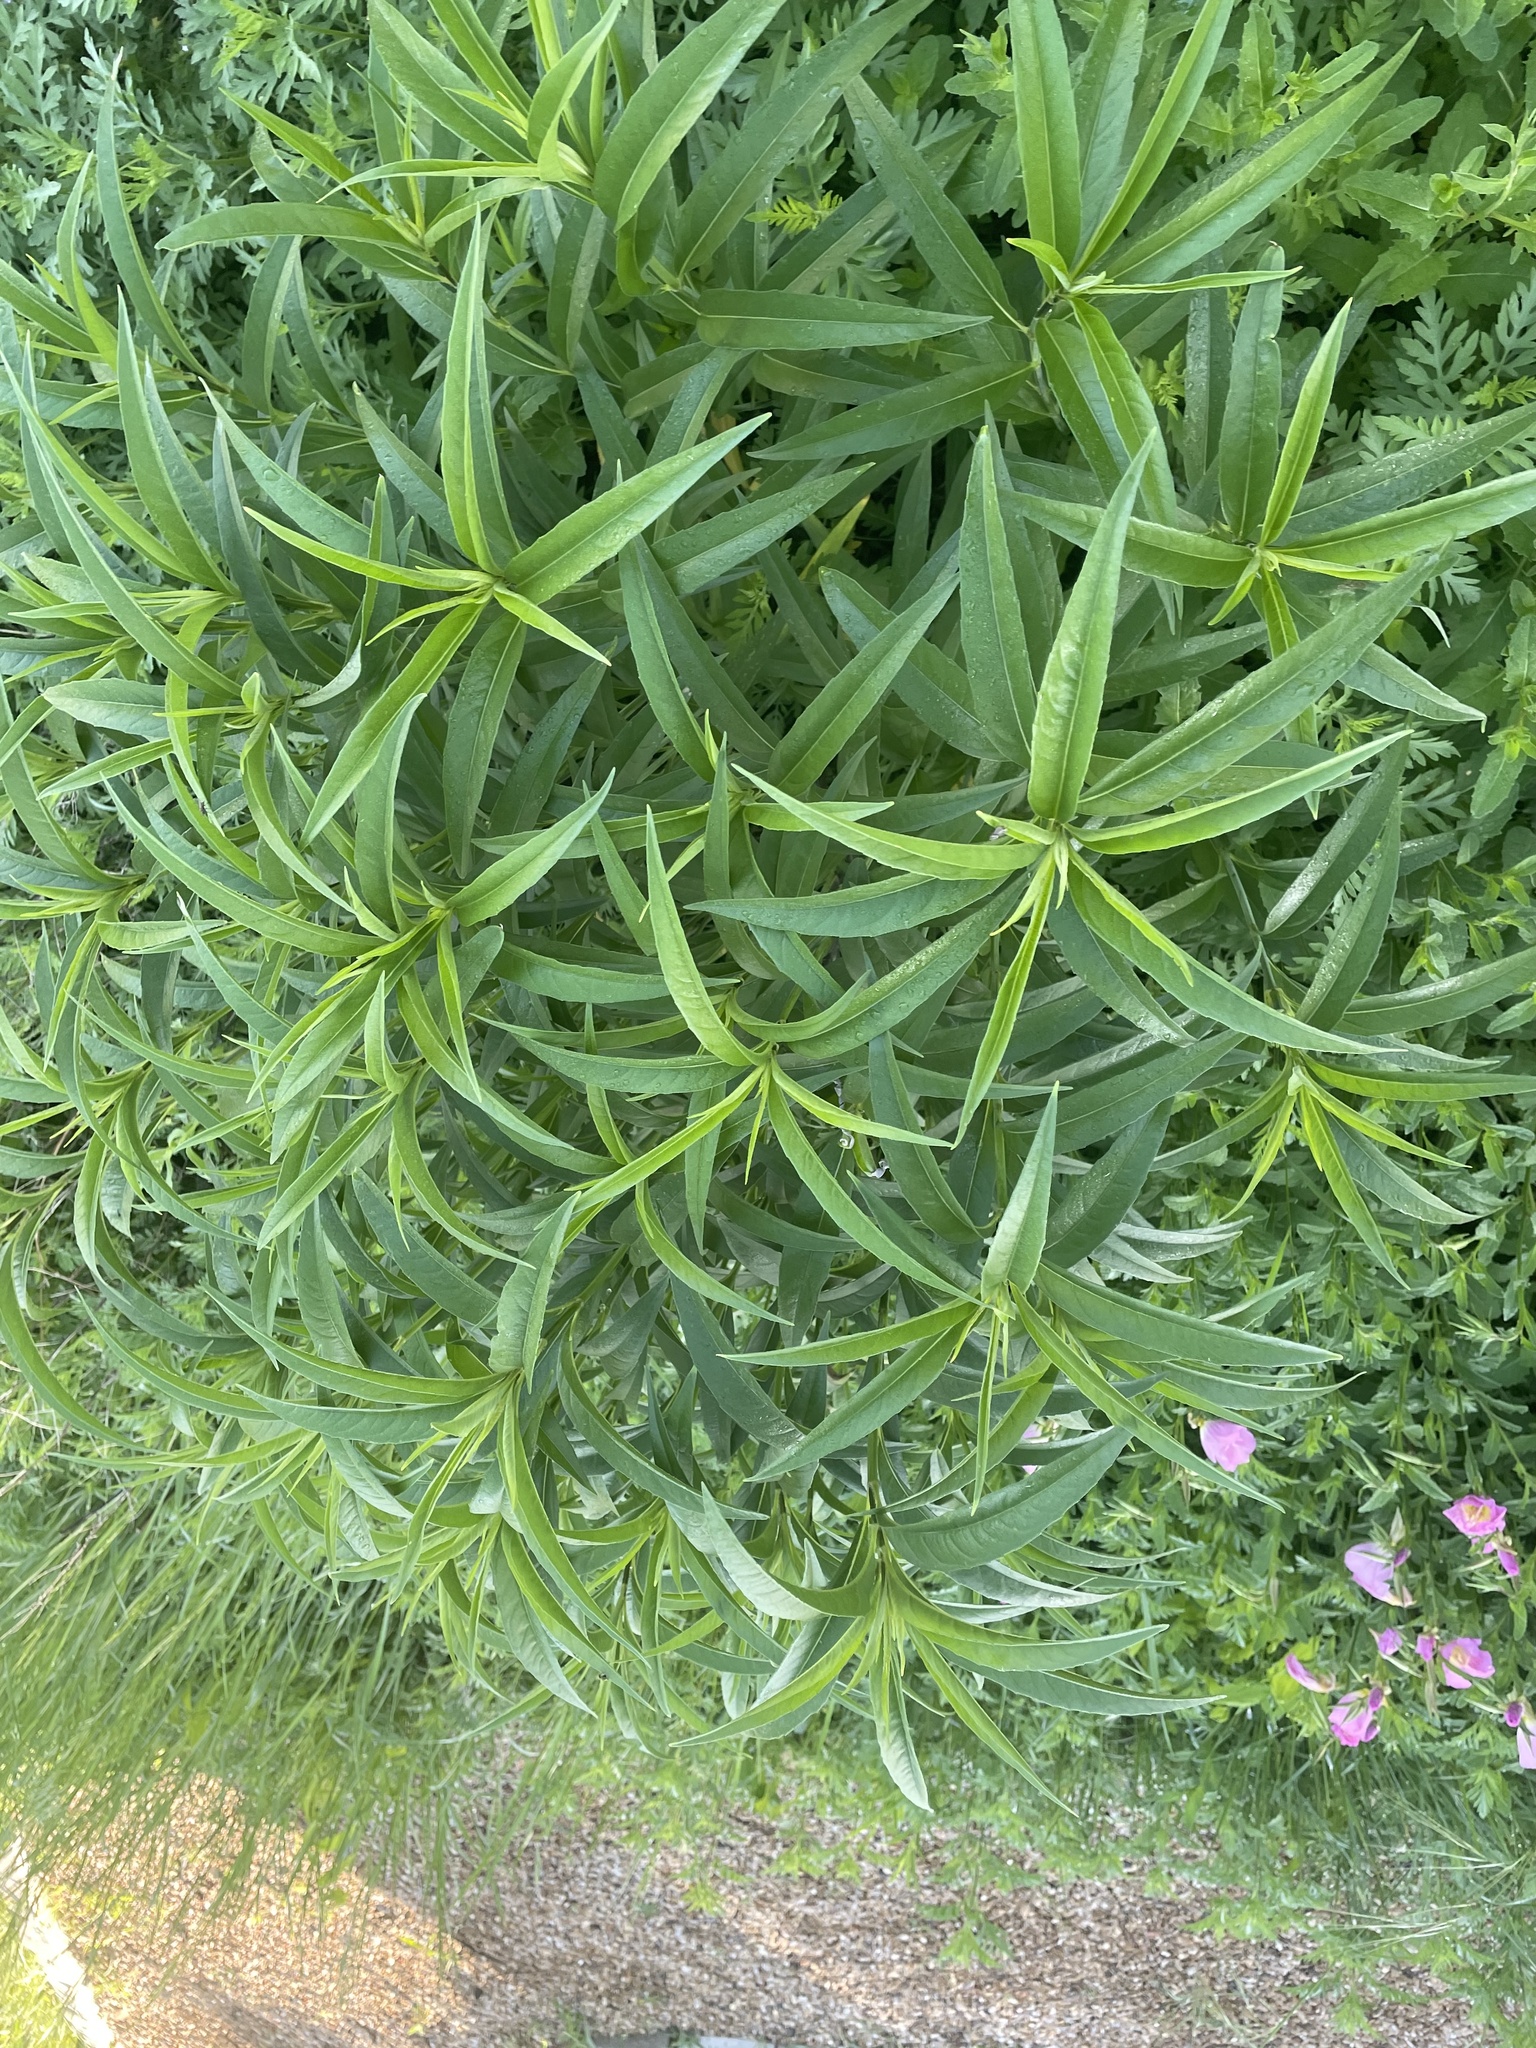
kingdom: Plantae
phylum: Tracheophyta
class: Magnoliopsida
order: Asterales
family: Asteraceae
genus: Helianthus
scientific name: Helianthus maximiliani
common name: Maximilian's sunflower
